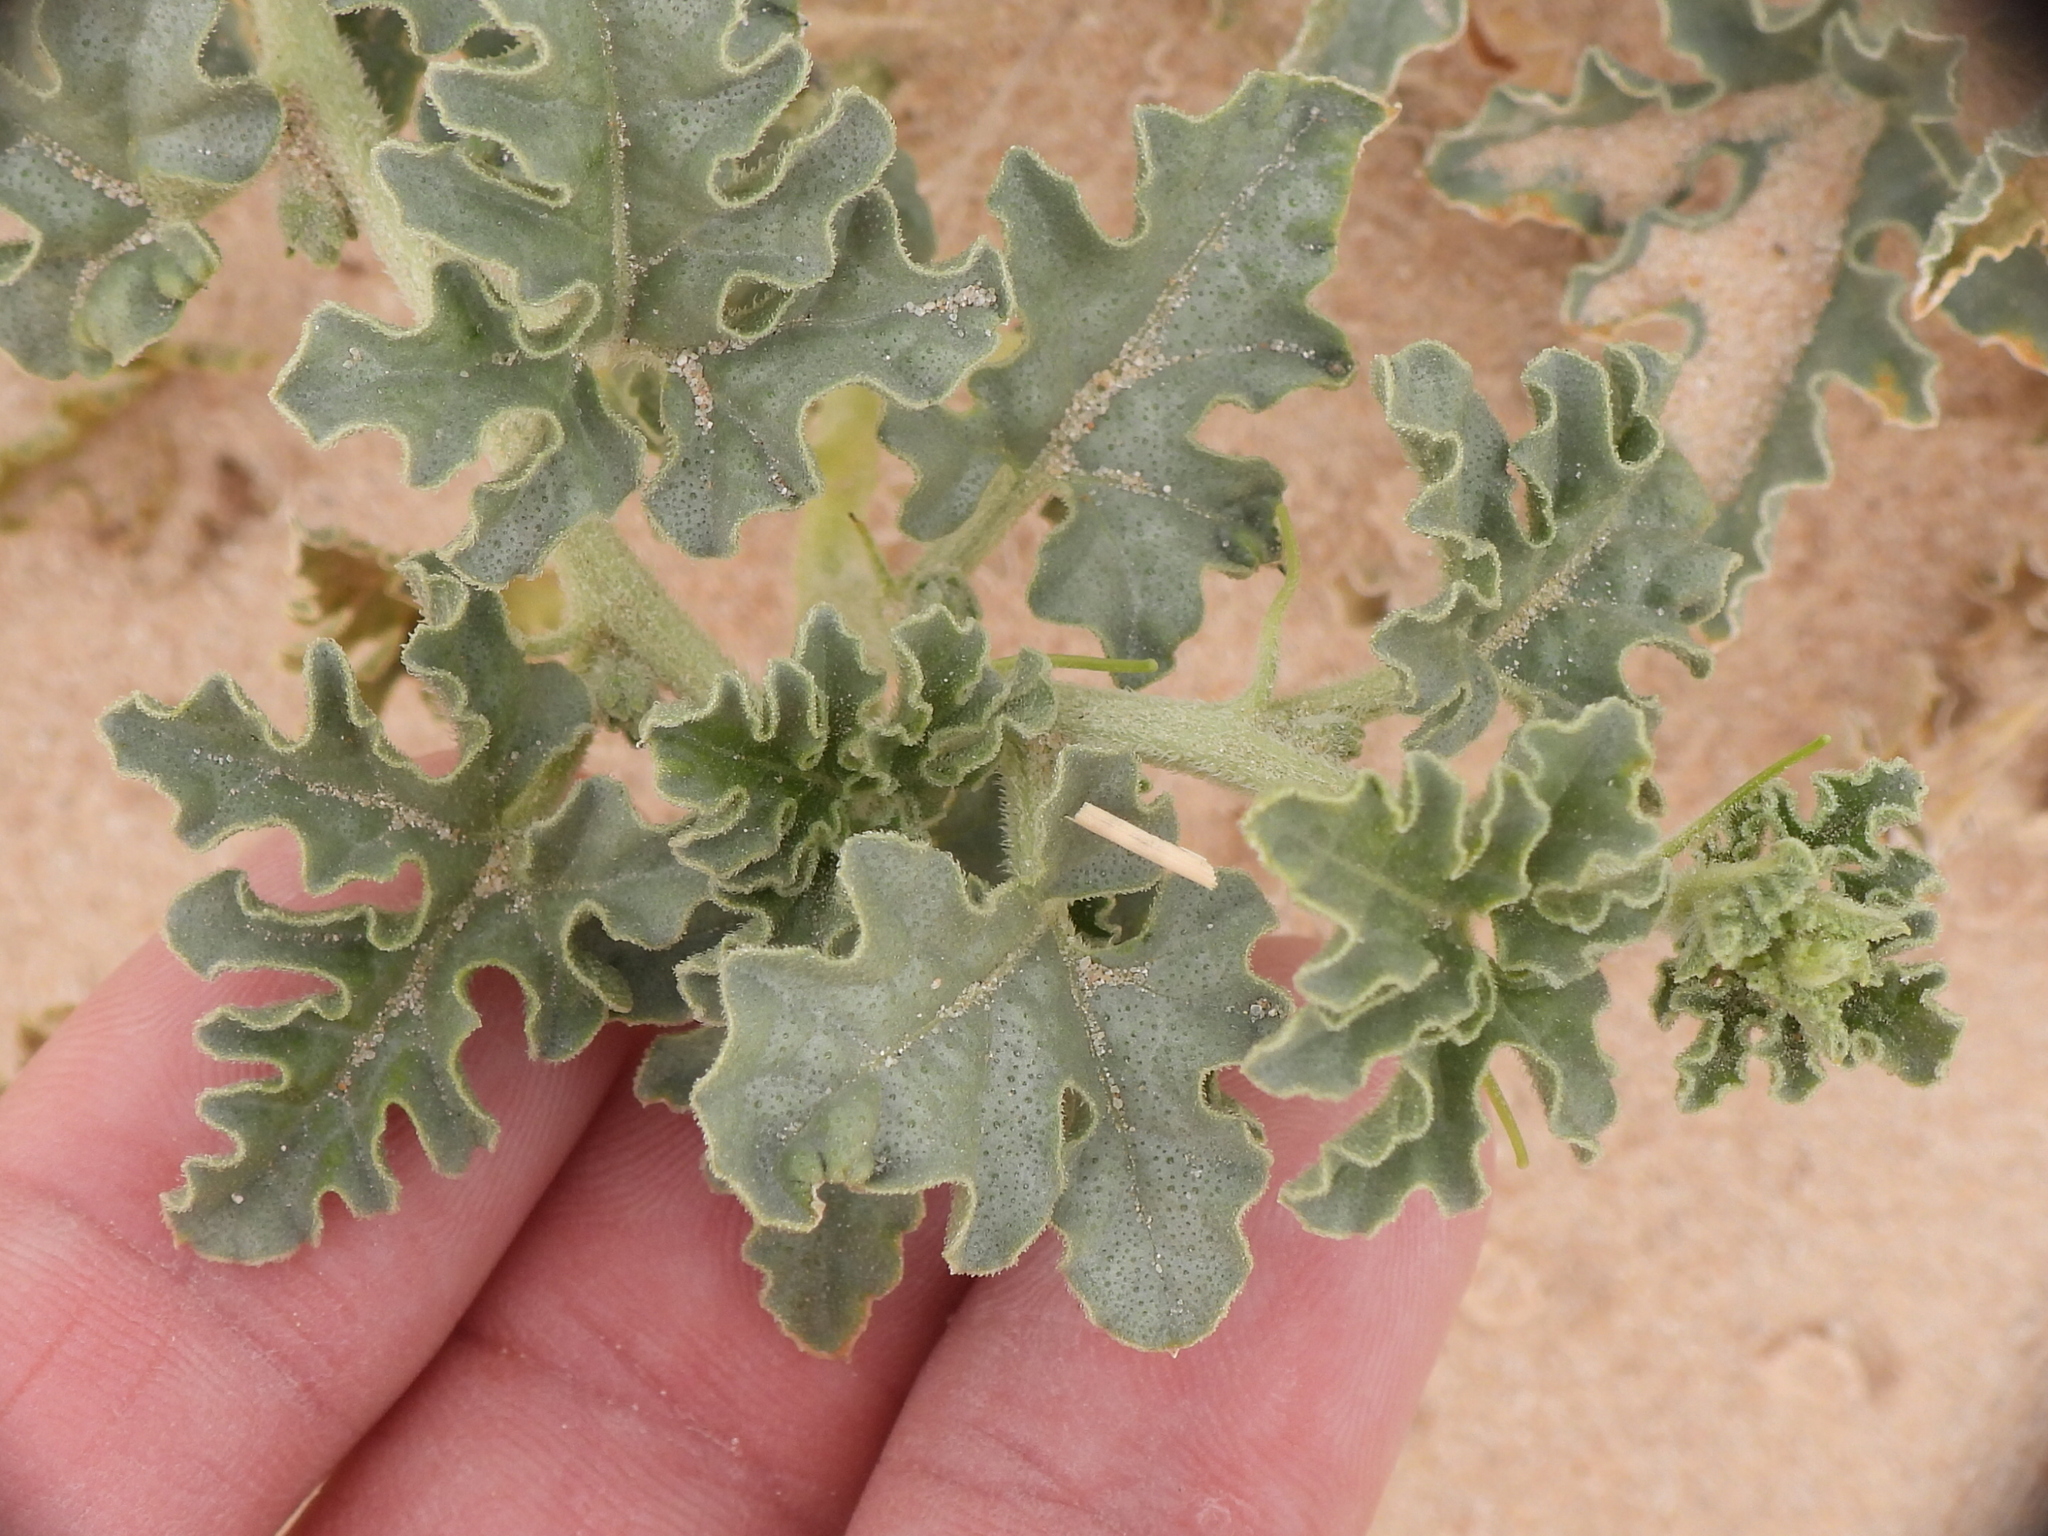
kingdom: Plantae
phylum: Tracheophyta
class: Magnoliopsida
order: Cucurbitales
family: Cucurbitaceae
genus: Citrullus
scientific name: Citrullus colocynthis
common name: Colocynth
